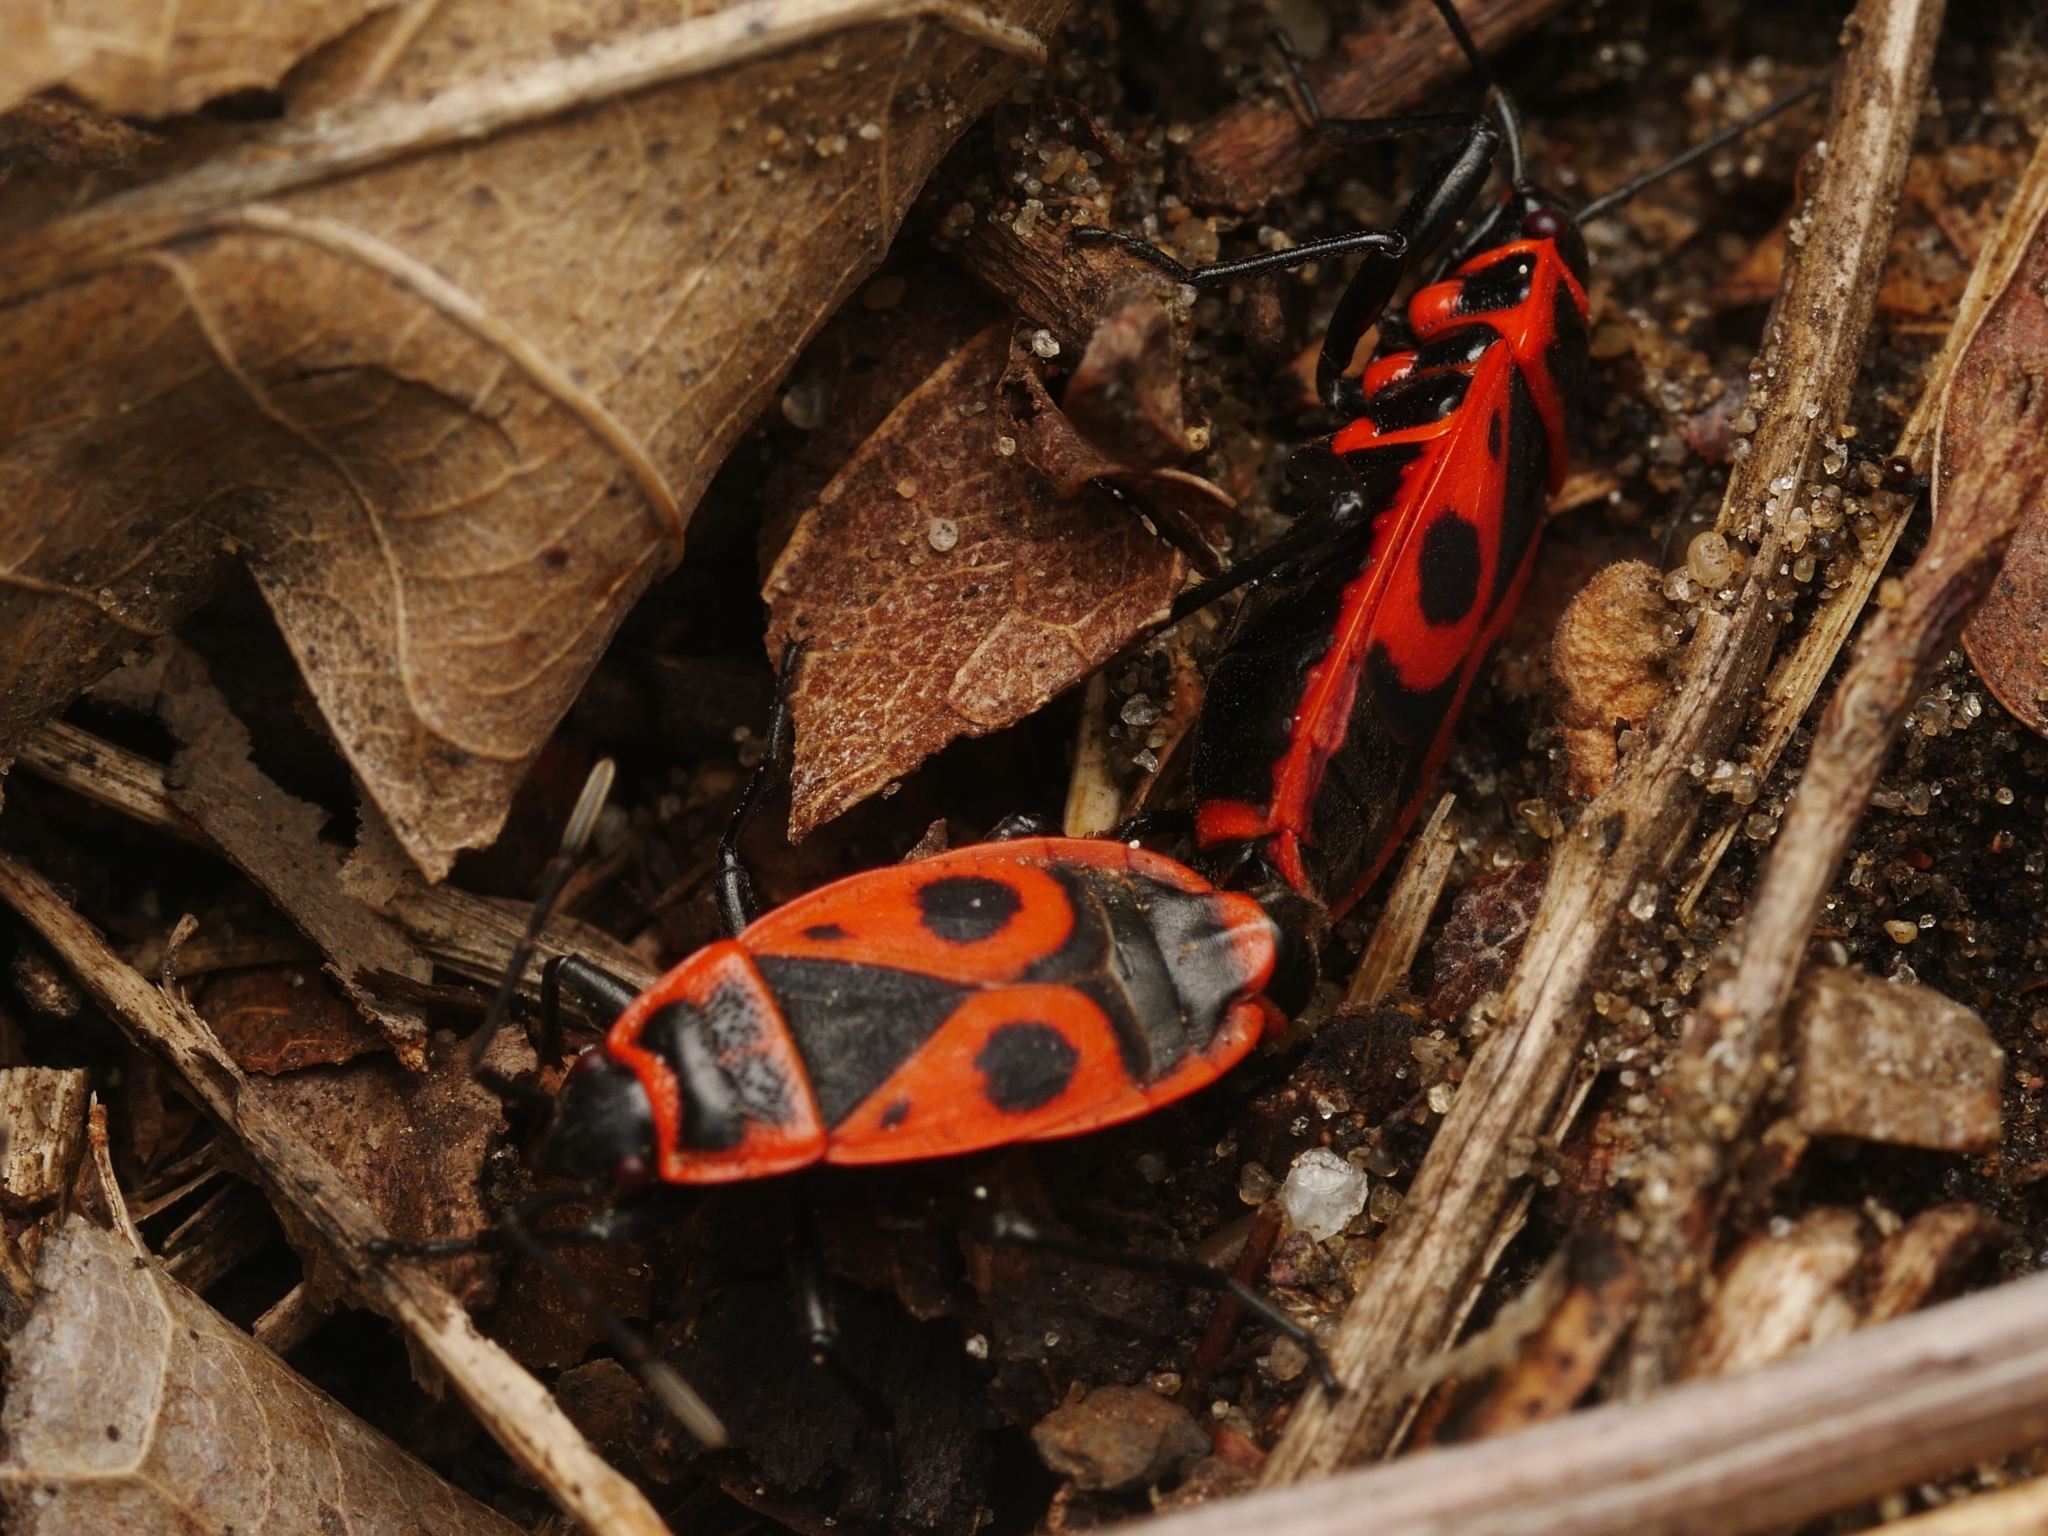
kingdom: Animalia
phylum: Arthropoda
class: Insecta
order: Hemiptera
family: Pyrrhocoridae
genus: Pyrrhocoris
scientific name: Pyrrhocoris apterus
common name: Firebug
